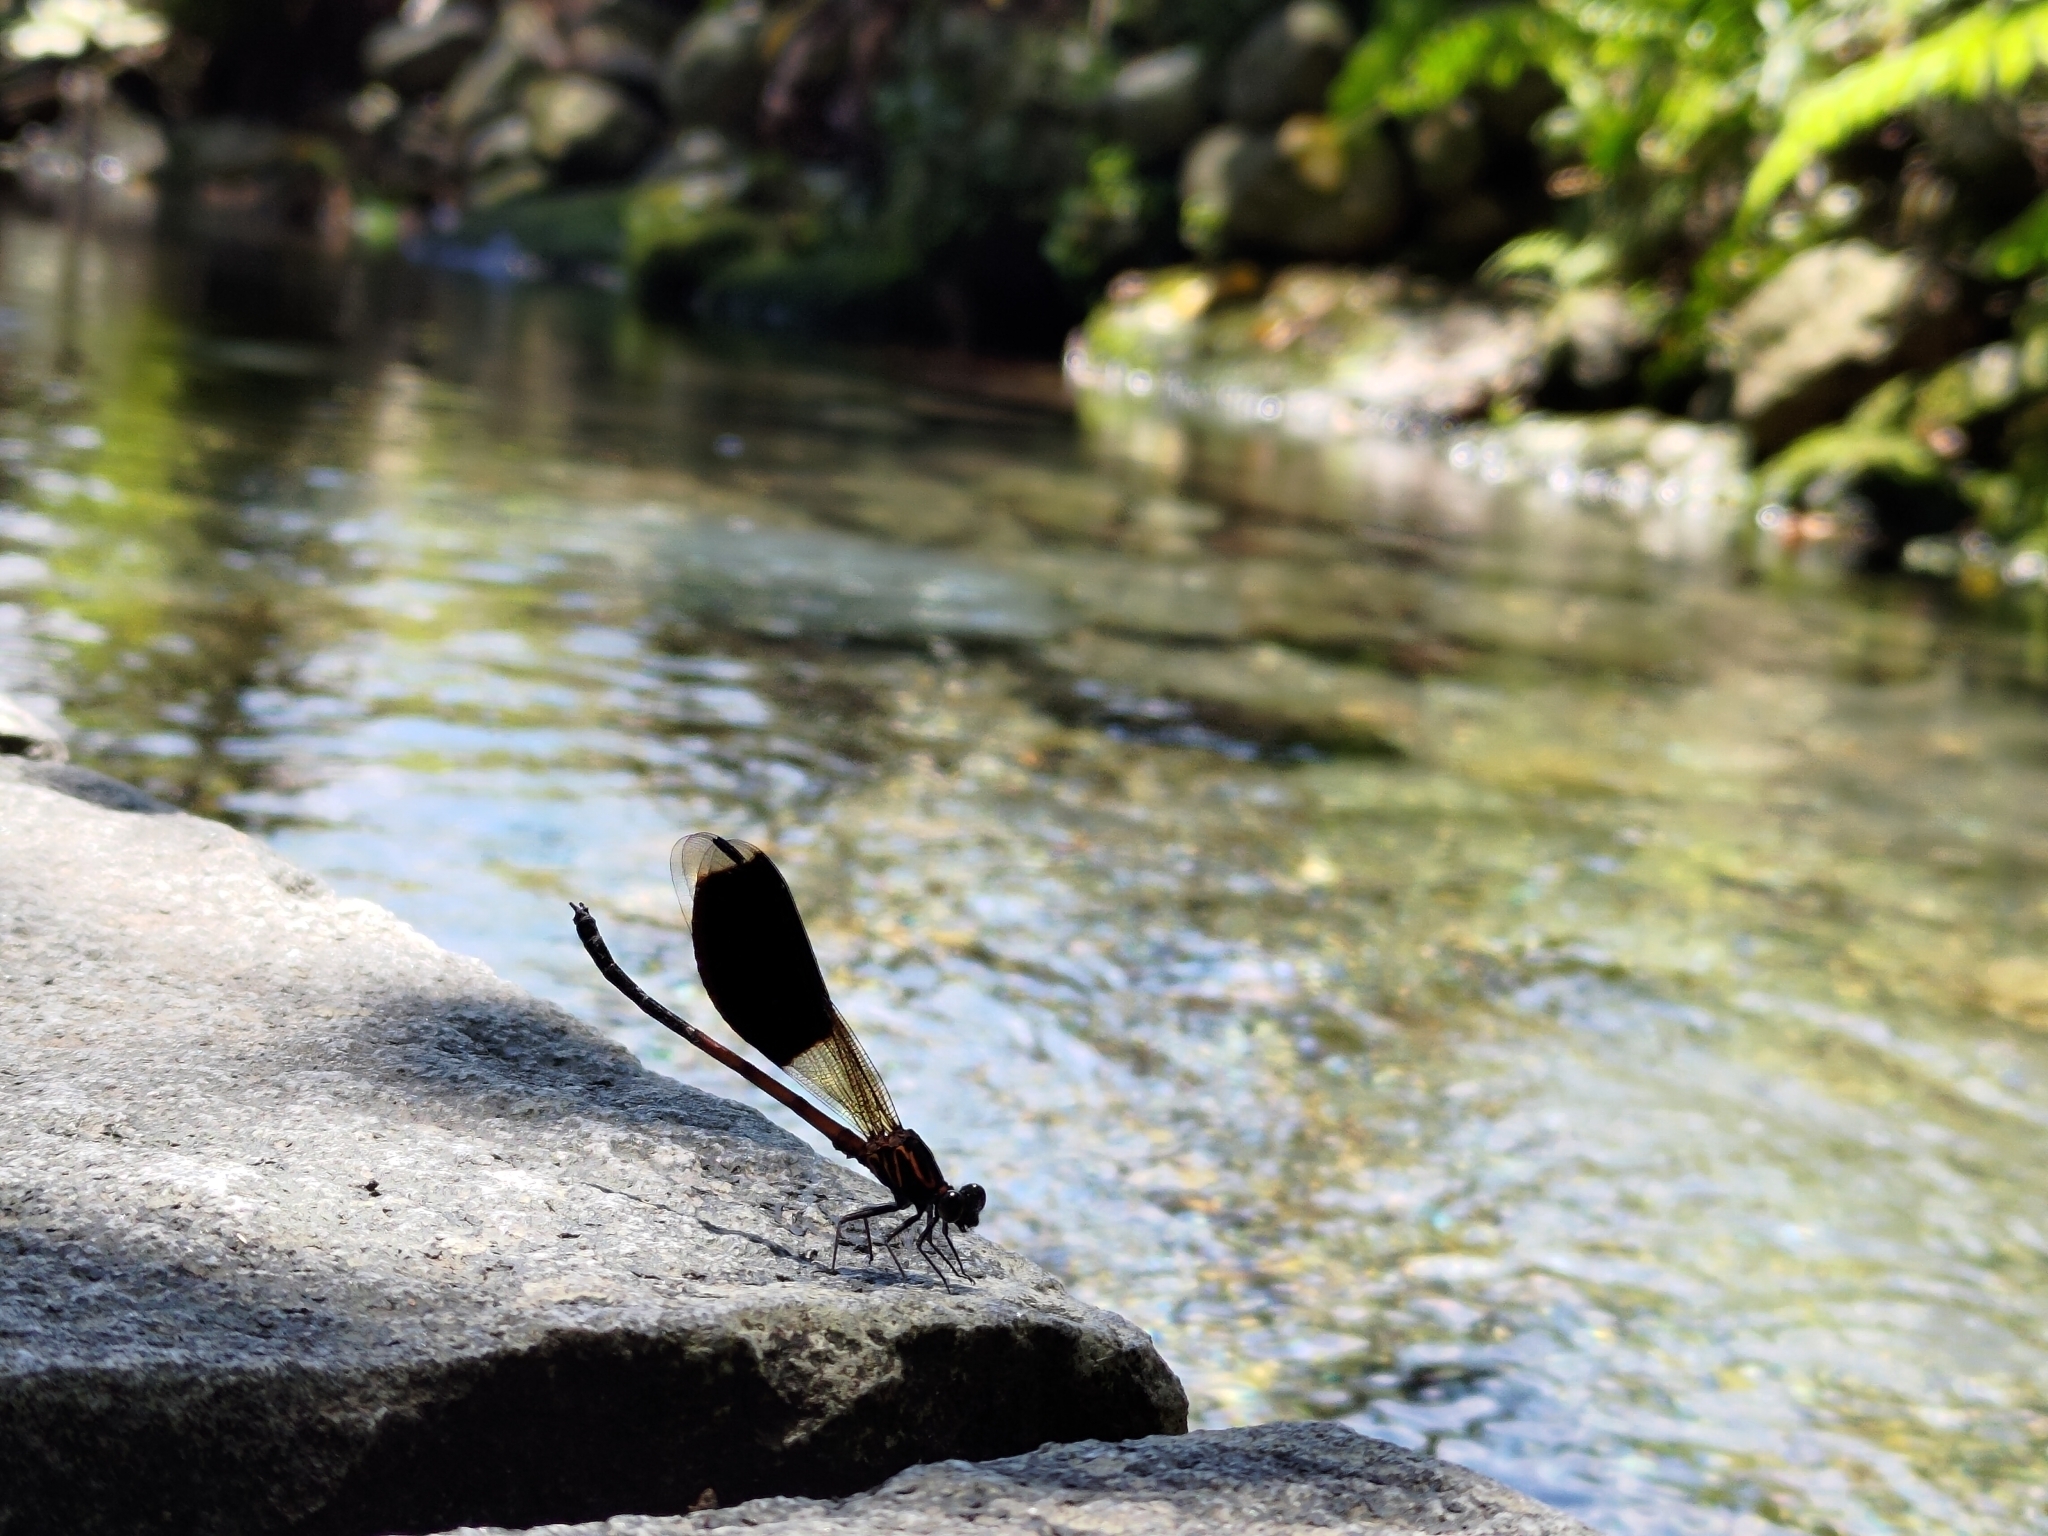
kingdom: Animalia
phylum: Arthropoda
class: Insecta
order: Odonata
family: Euphaeidae
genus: Euphaea
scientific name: Euphaea formosa
